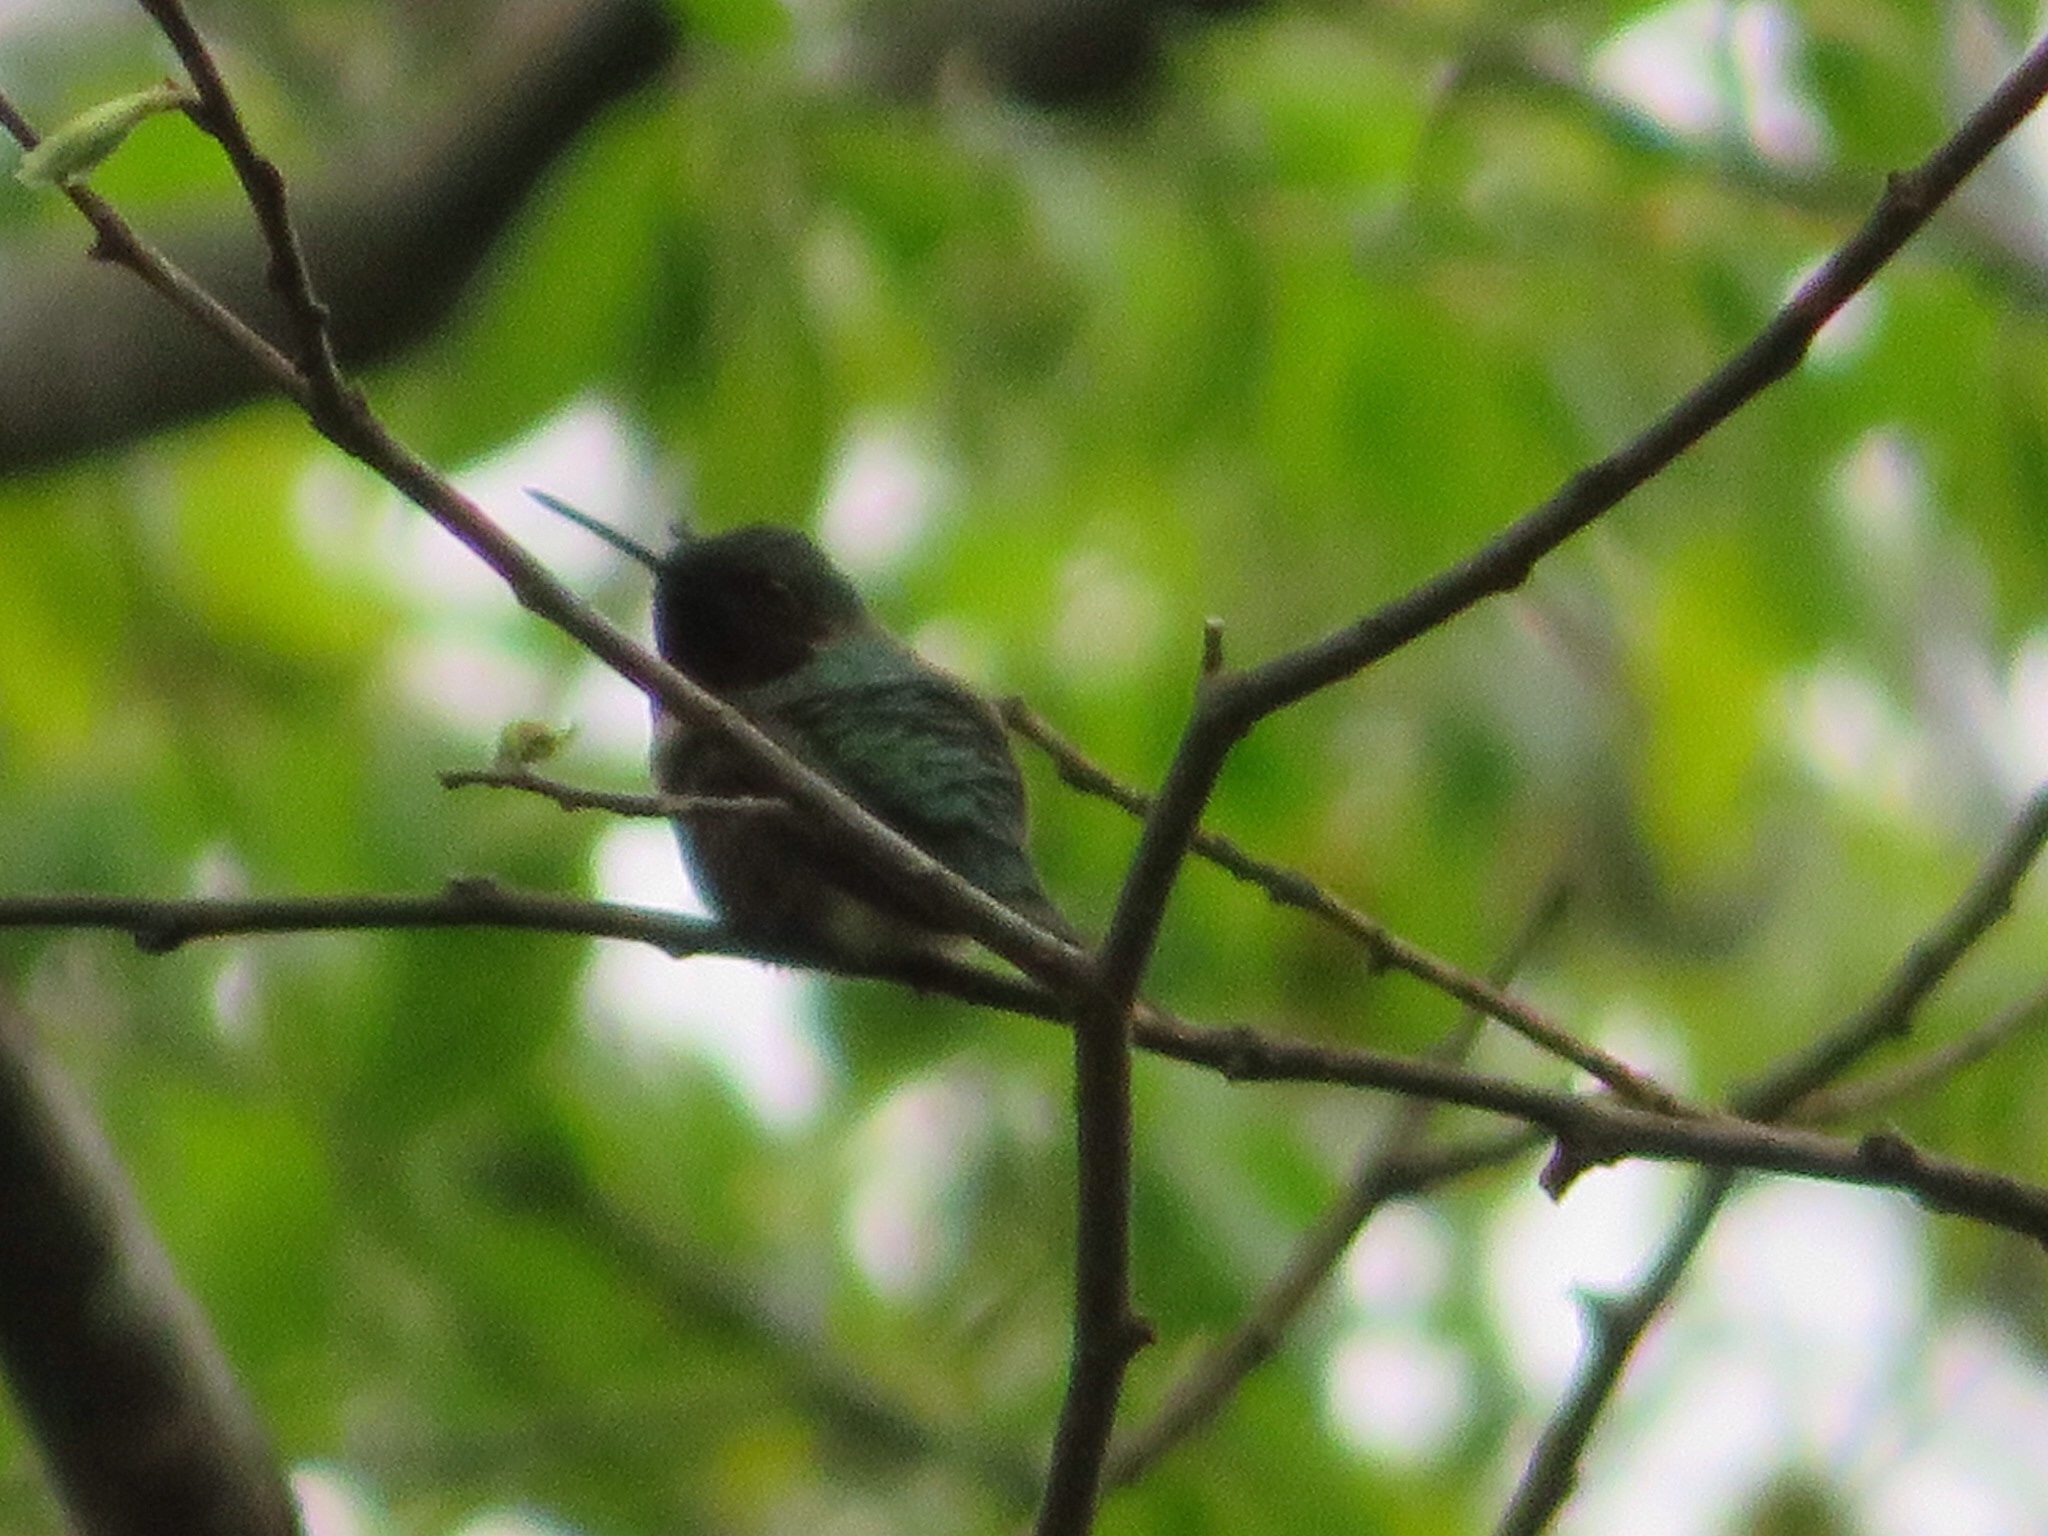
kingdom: Animalia
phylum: Chordata
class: Aves
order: Apodiformes
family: Trochilidae
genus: Archilochus
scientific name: Archilochus colubris
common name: Ruby-throated hummingbird
